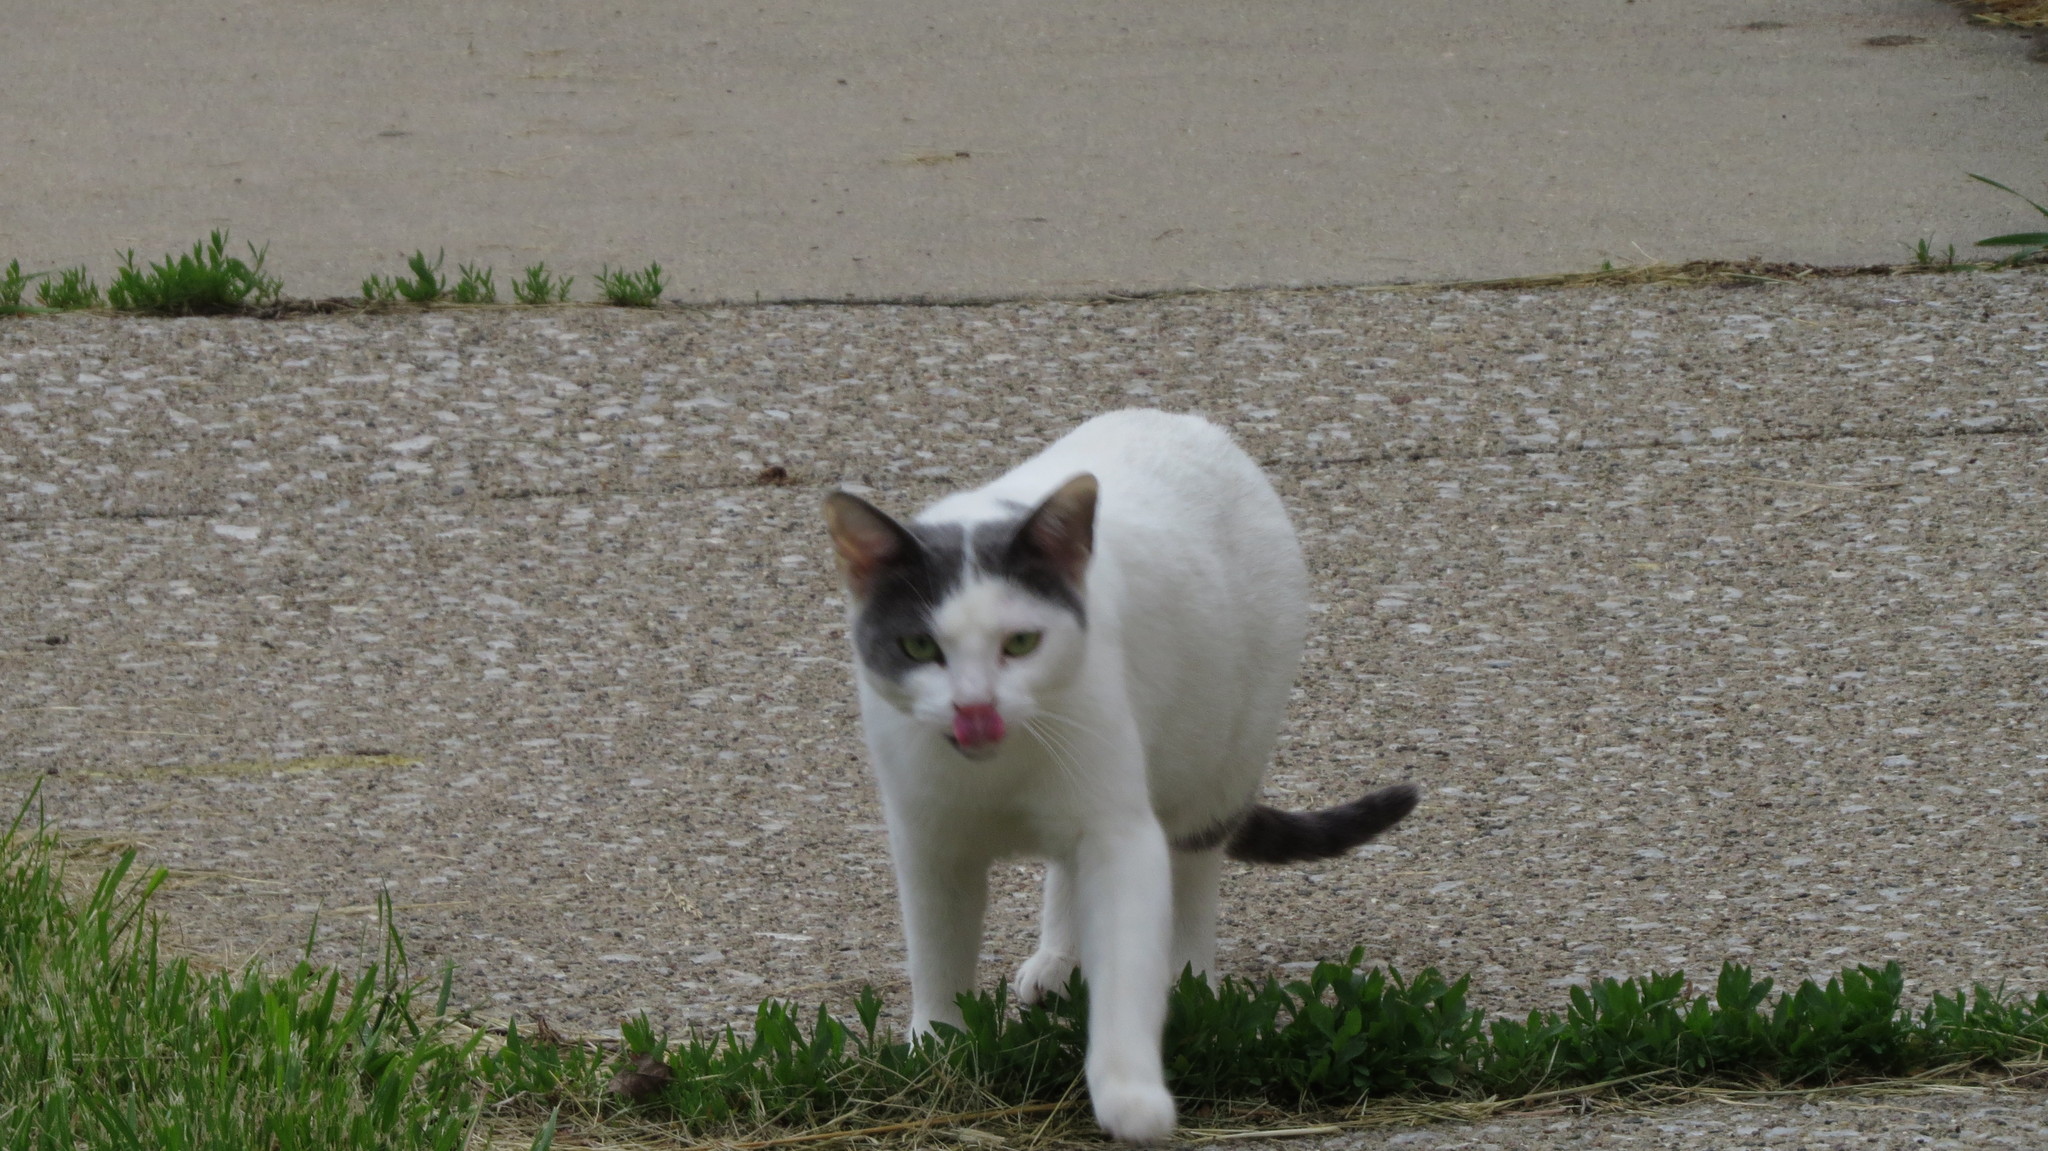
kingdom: Animalia
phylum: Chordata
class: Mammalia
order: Carnivora
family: Felidae
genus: Felis
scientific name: Felis catus
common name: Domestic cat
